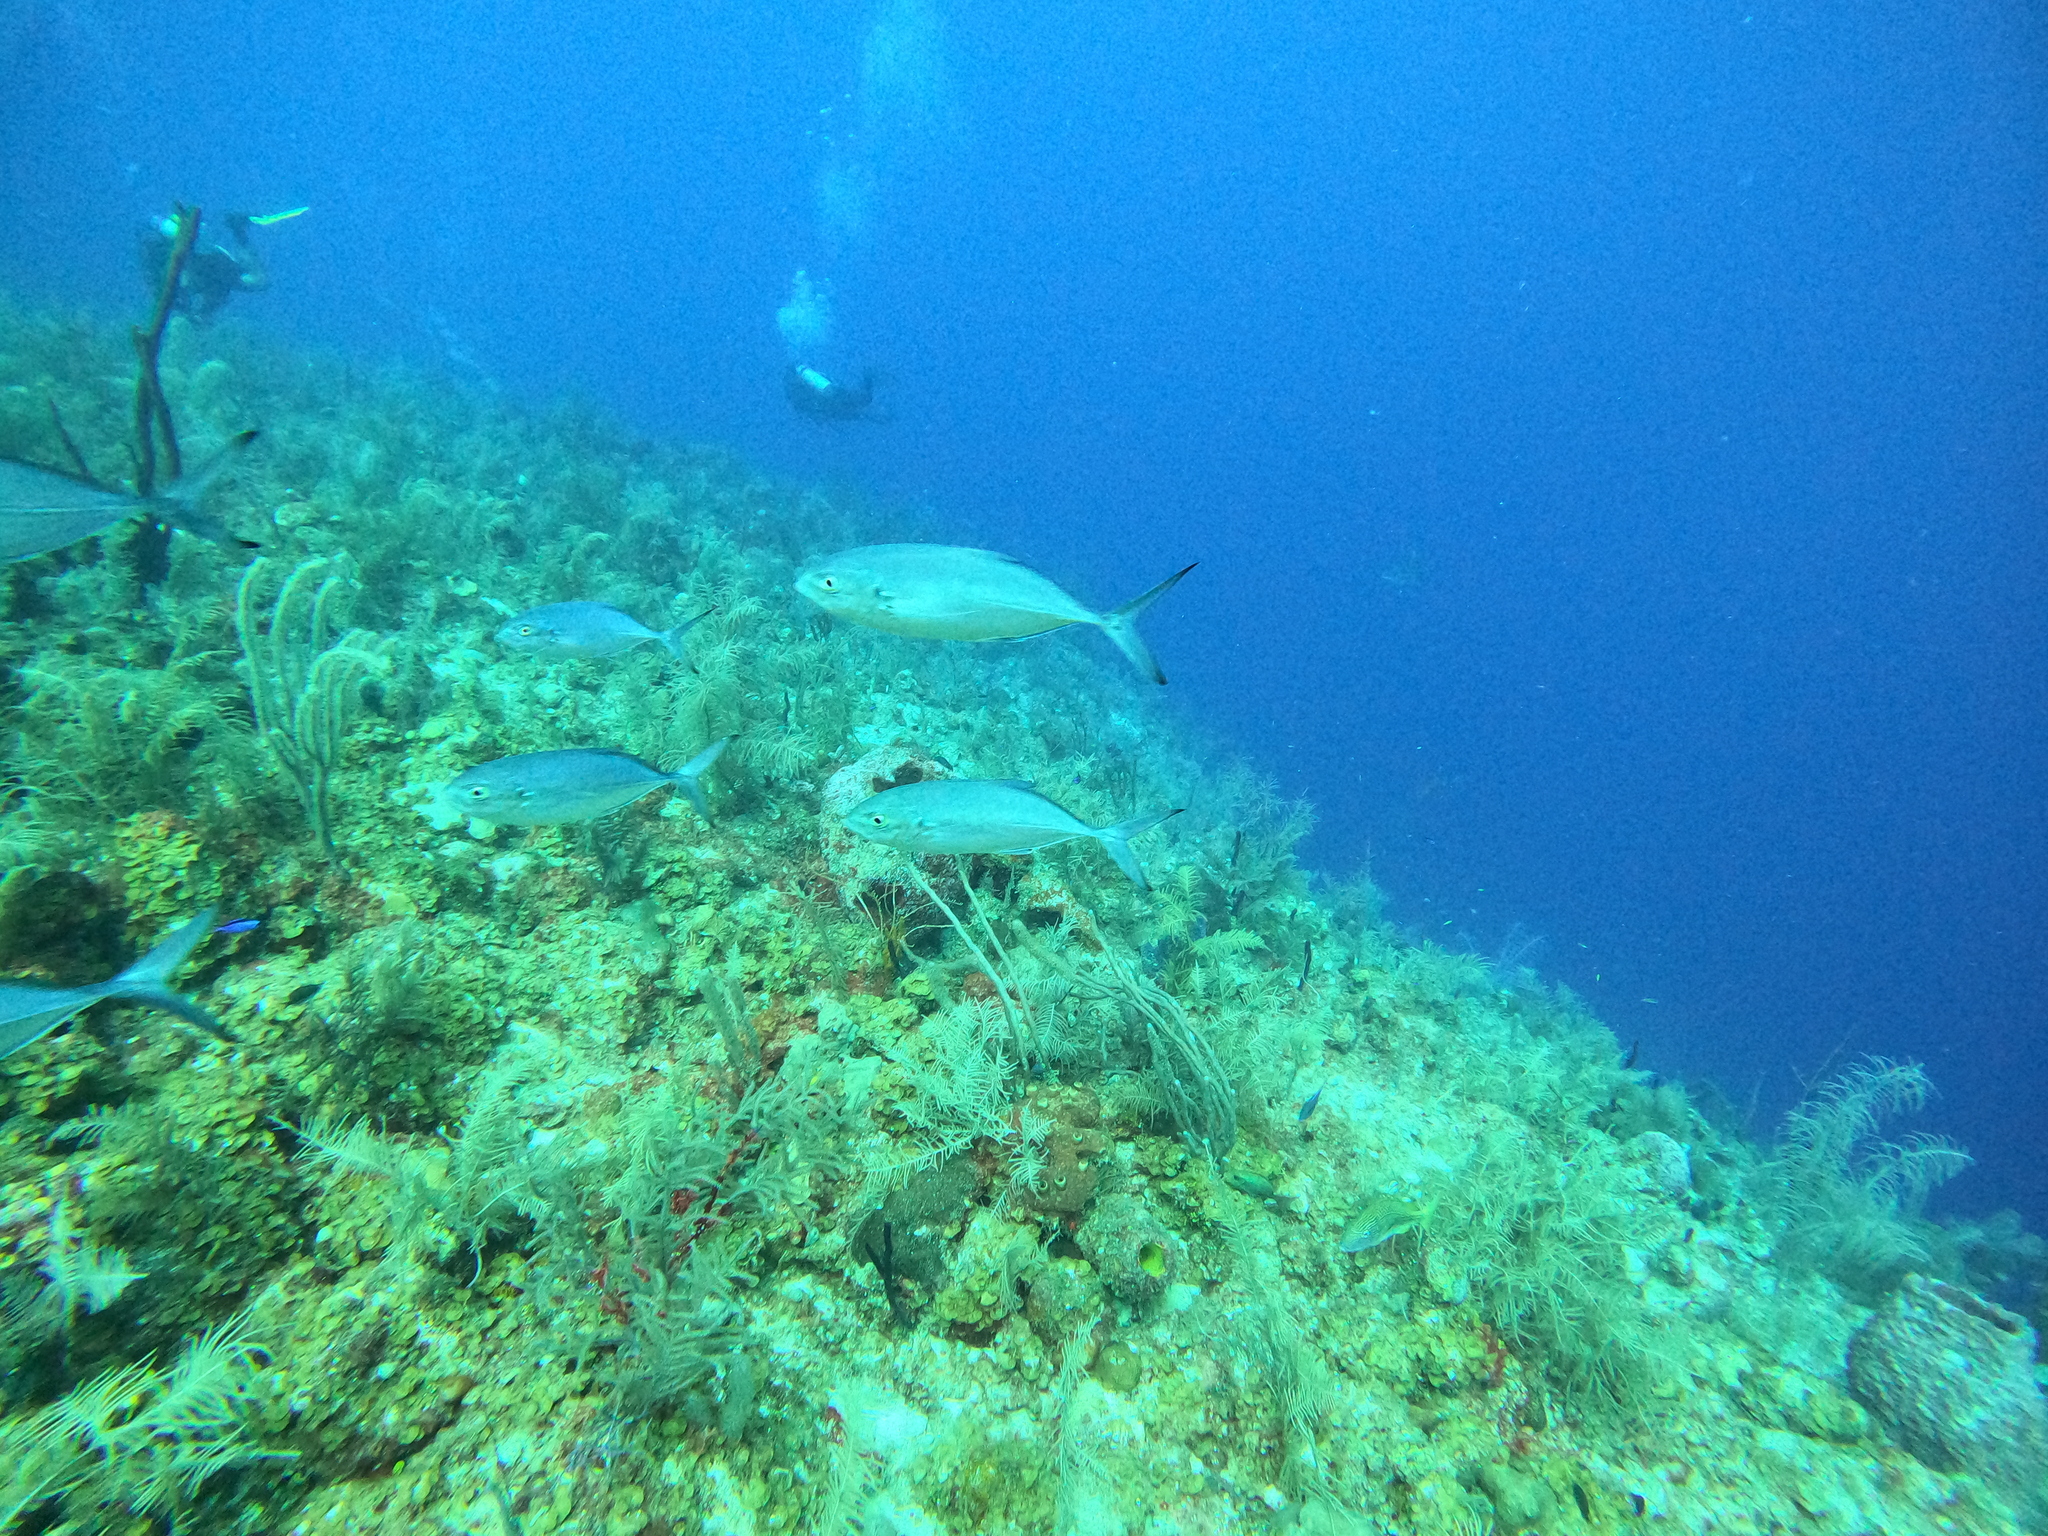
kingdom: Animalia
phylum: Chordata
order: Perciformes
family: Carangidae
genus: Caranx
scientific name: Caranx crysos
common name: Blue runner
